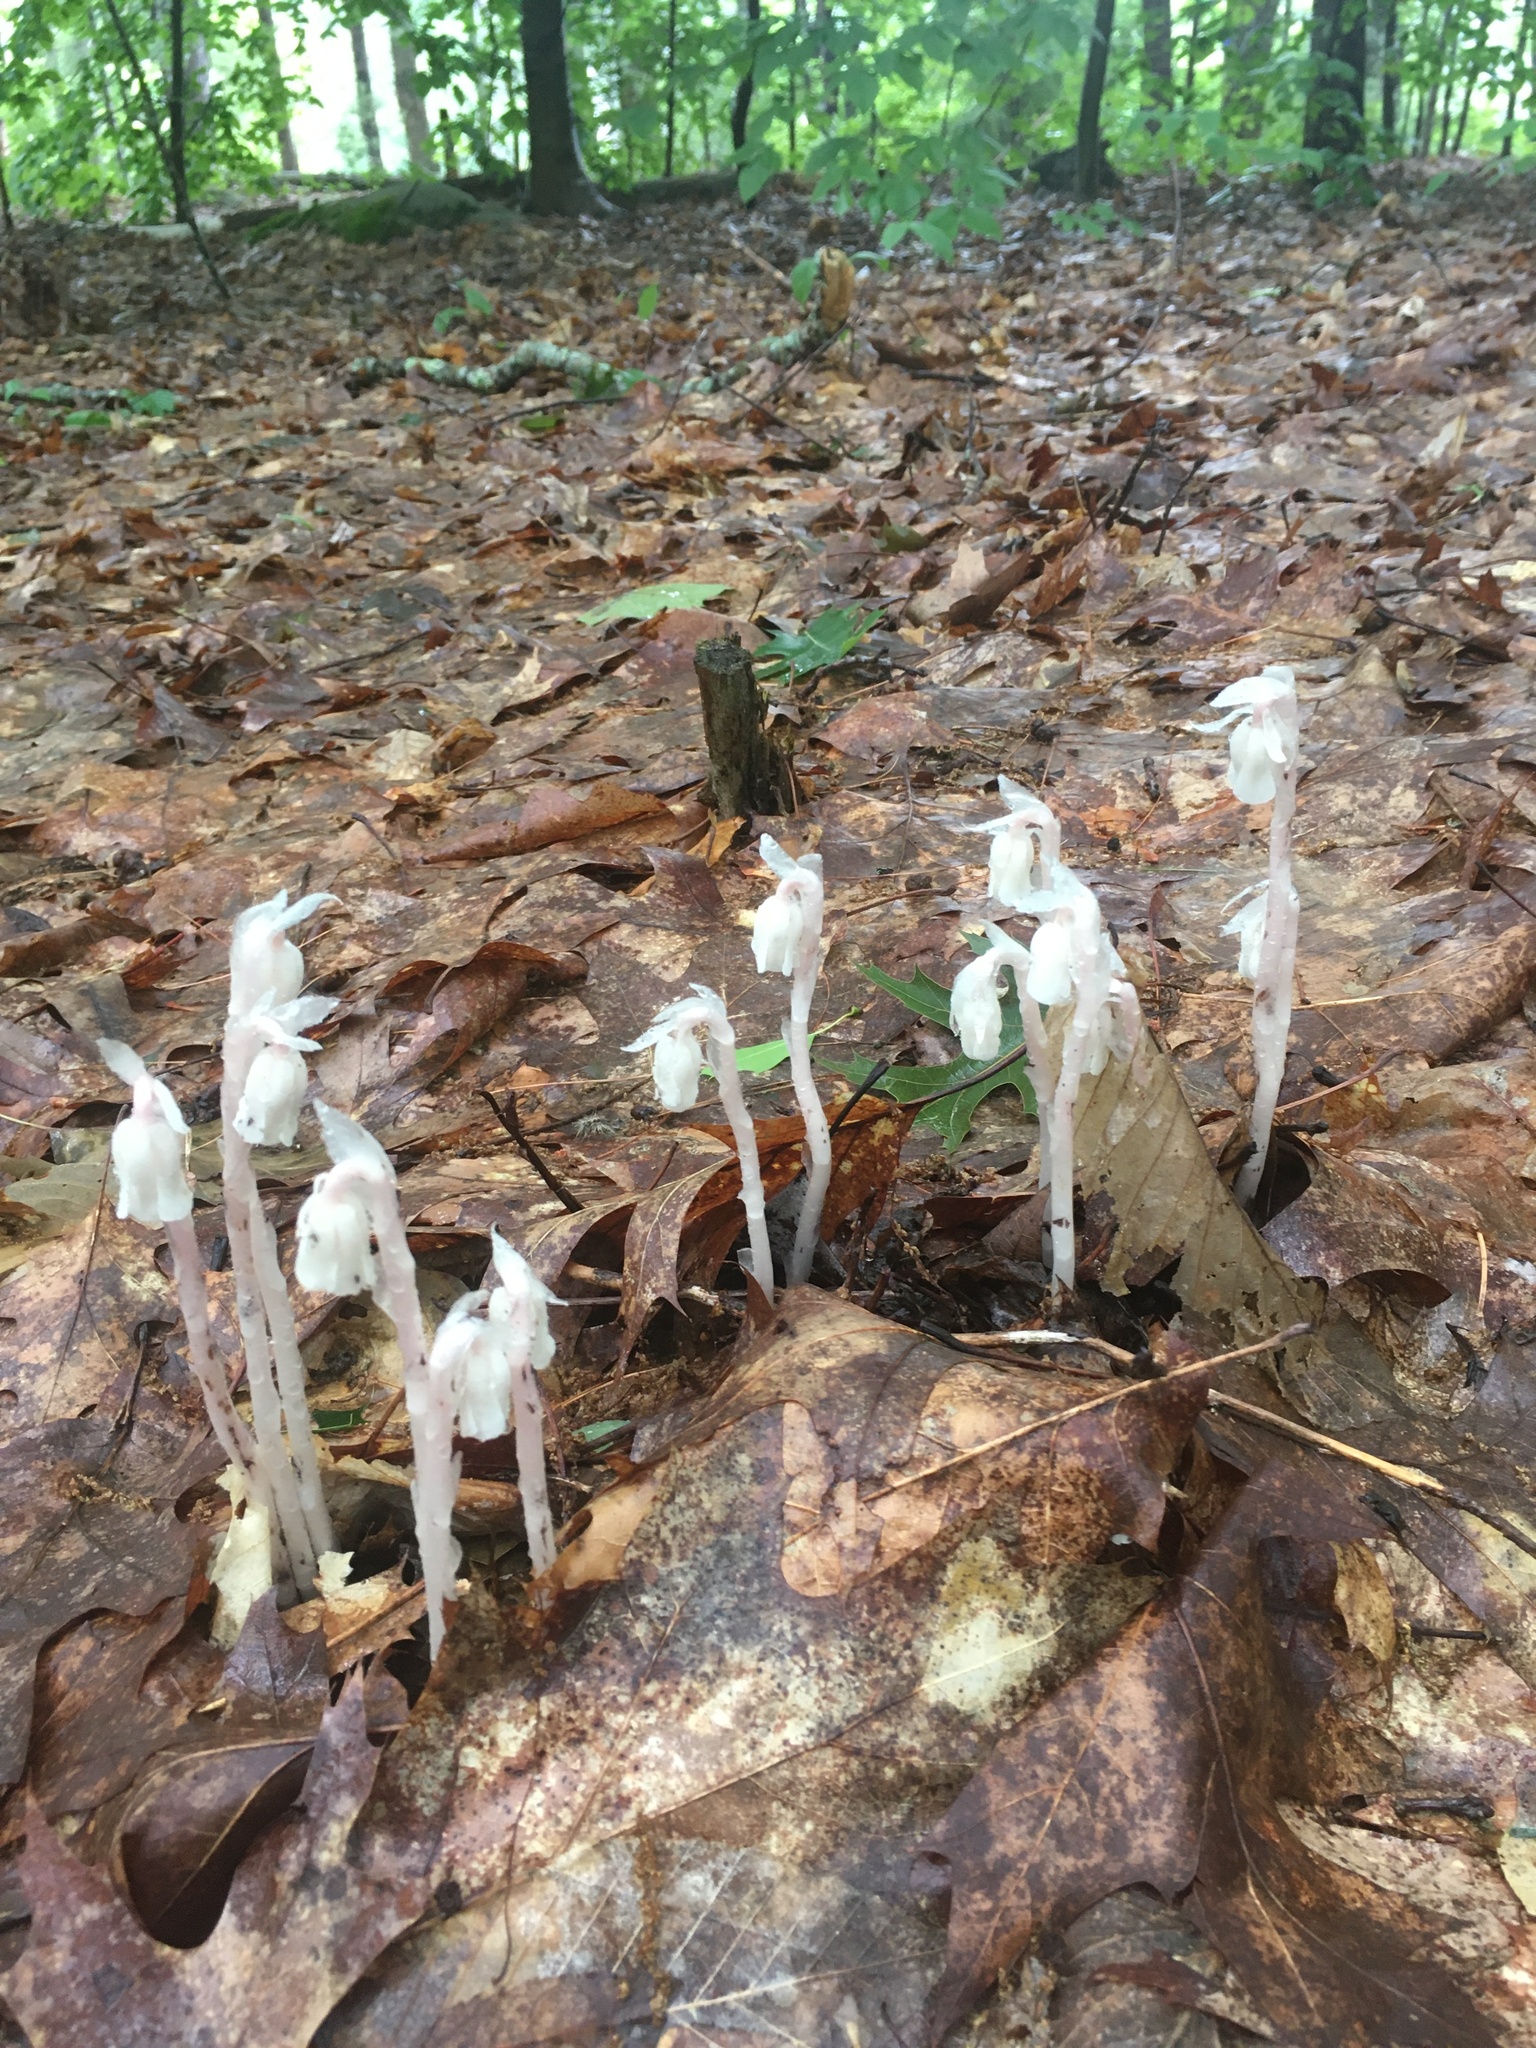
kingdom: Plantae
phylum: Tracheophyta
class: Magnoliopsida
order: Ericales
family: Ericaceae
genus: Monotropa
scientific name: Monotropa uniflora
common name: Convulsion root
